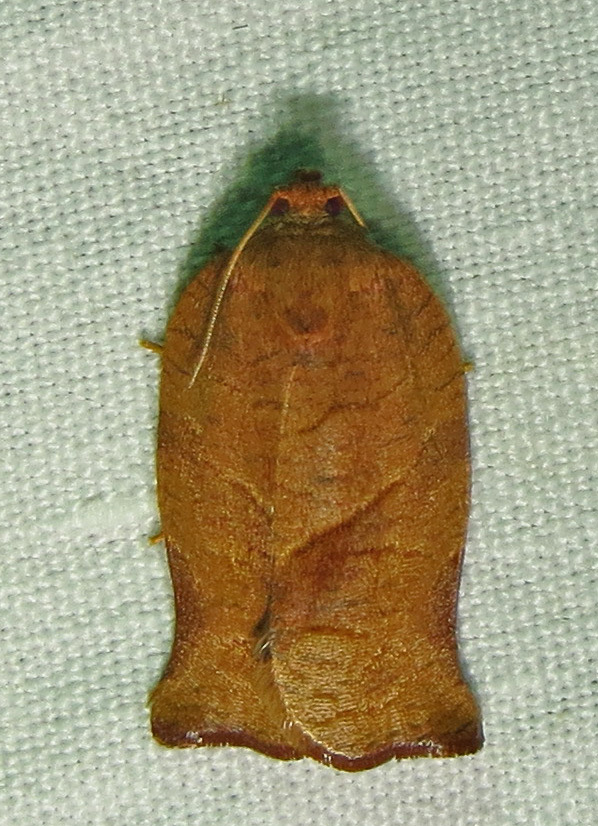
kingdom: Animalia
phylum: Arthropoda
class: Insecta
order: Lepidoptera
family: Tortricidae
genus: Choristoneura
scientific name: Choristoneura rosaceana
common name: Oblique-banded leafroller moth
